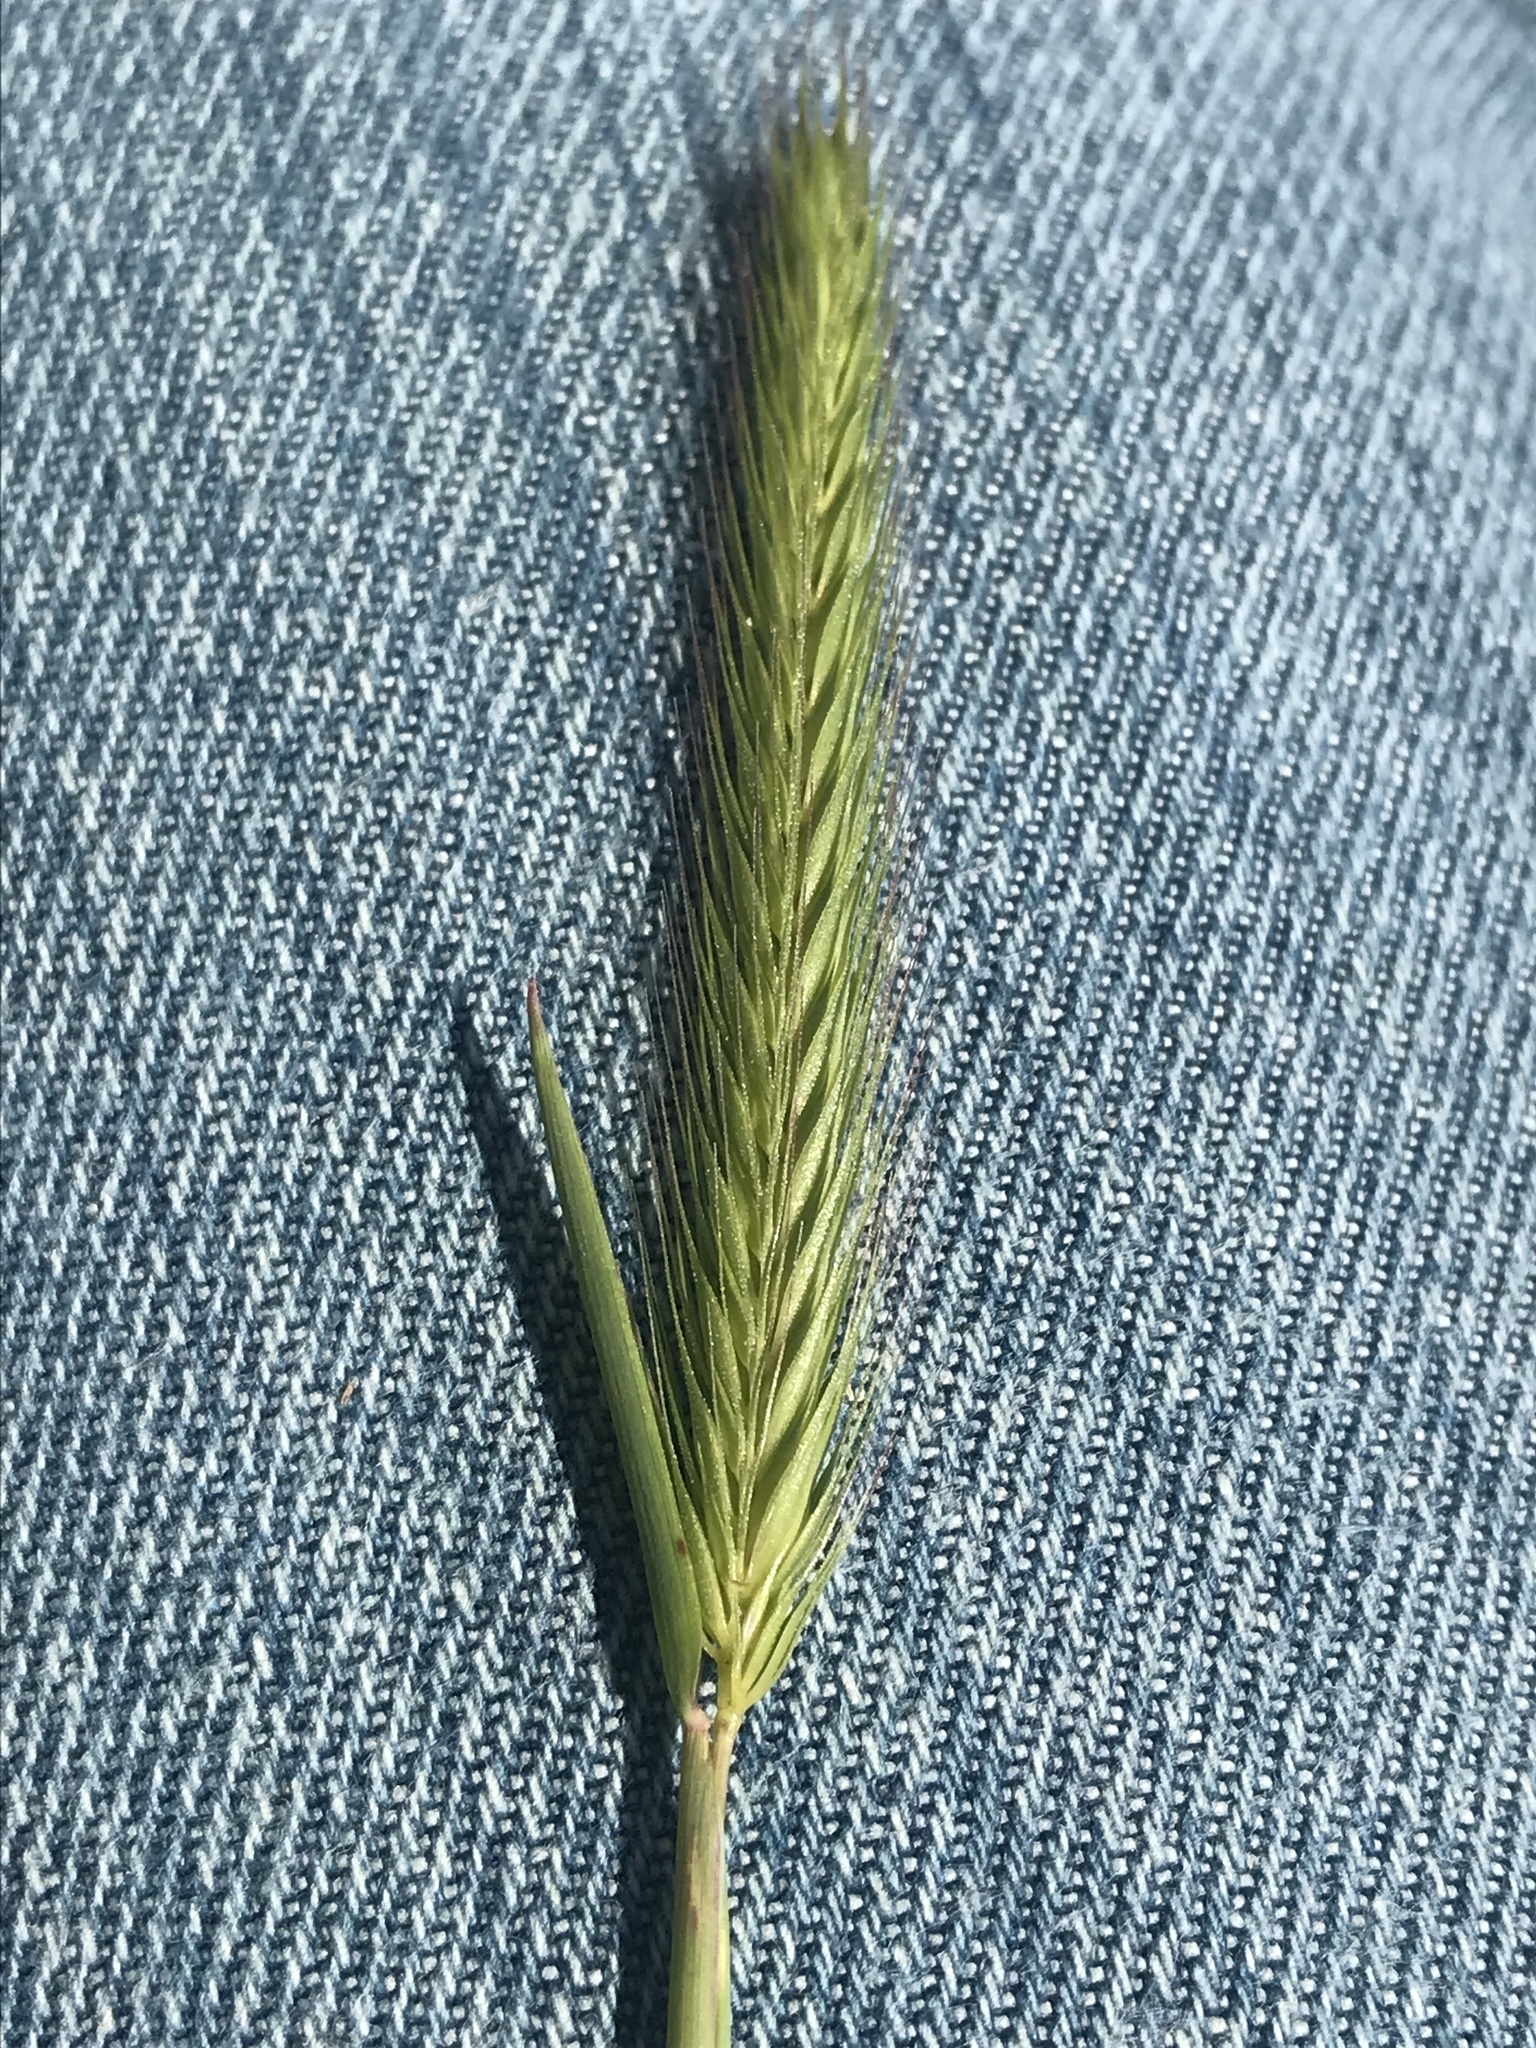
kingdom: Plantae
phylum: Tracheophyta
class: Liliopsida
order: Poales
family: Poaceae
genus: Hordeum
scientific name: Hordeum pusillum
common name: Little barley
